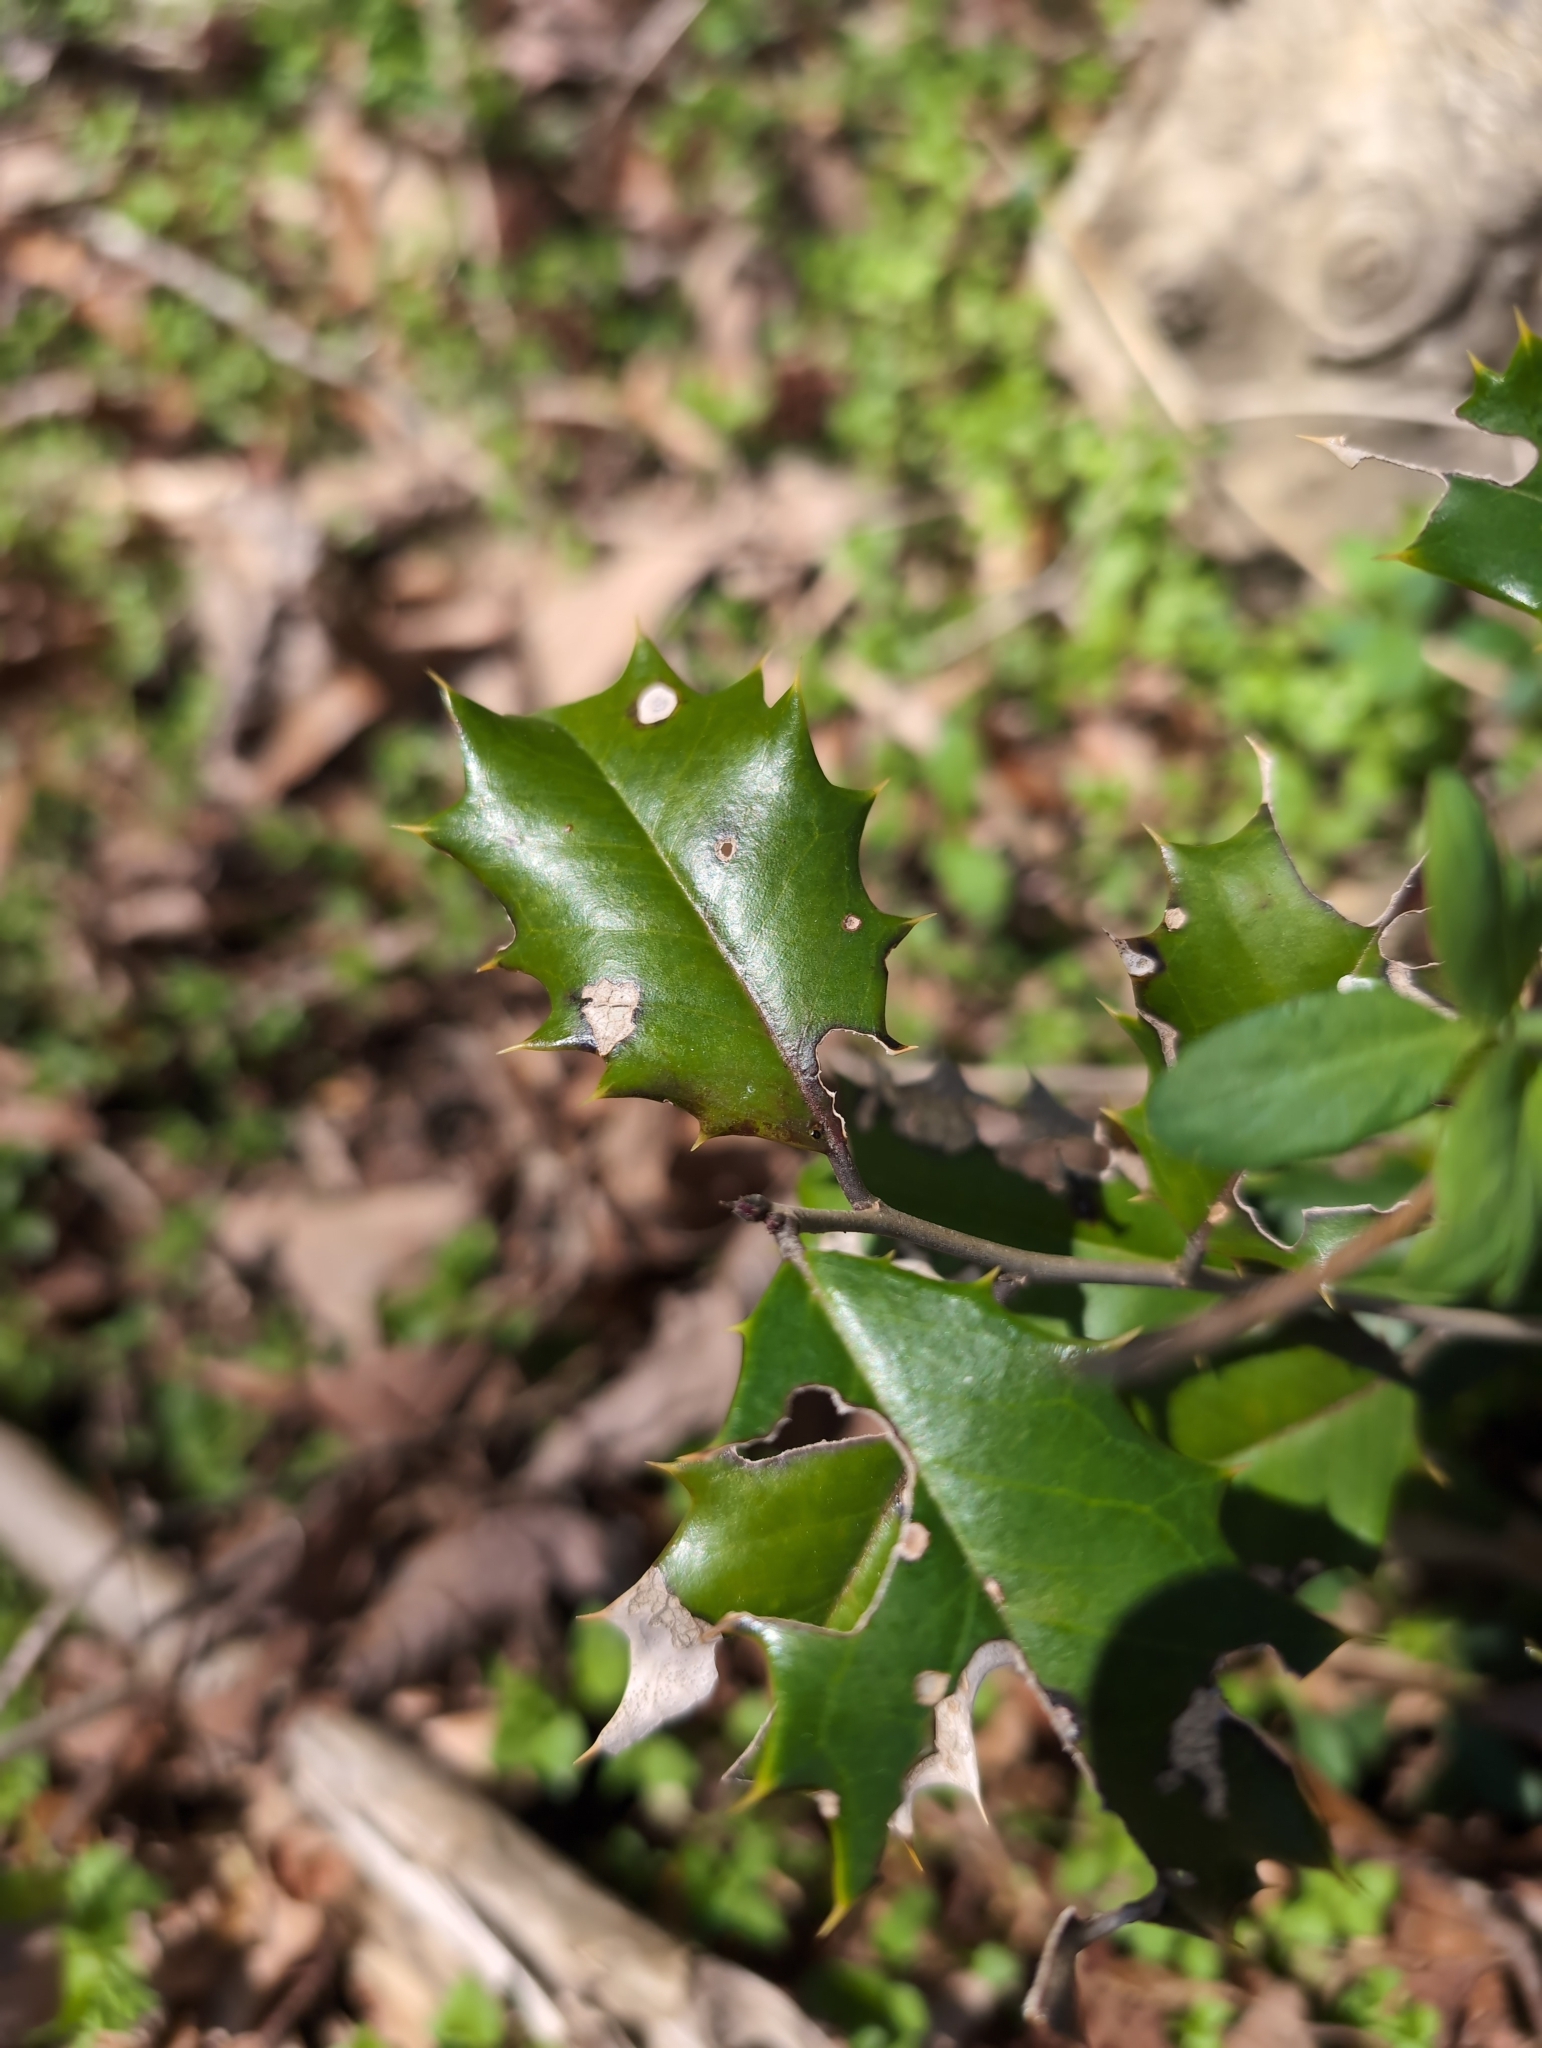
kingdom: Plantae
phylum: Tracheophyta
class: Magnoliopsida
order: Aquifoliales
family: Aquifoliaceae
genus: Ilex
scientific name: Ilex opaca
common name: American holly
